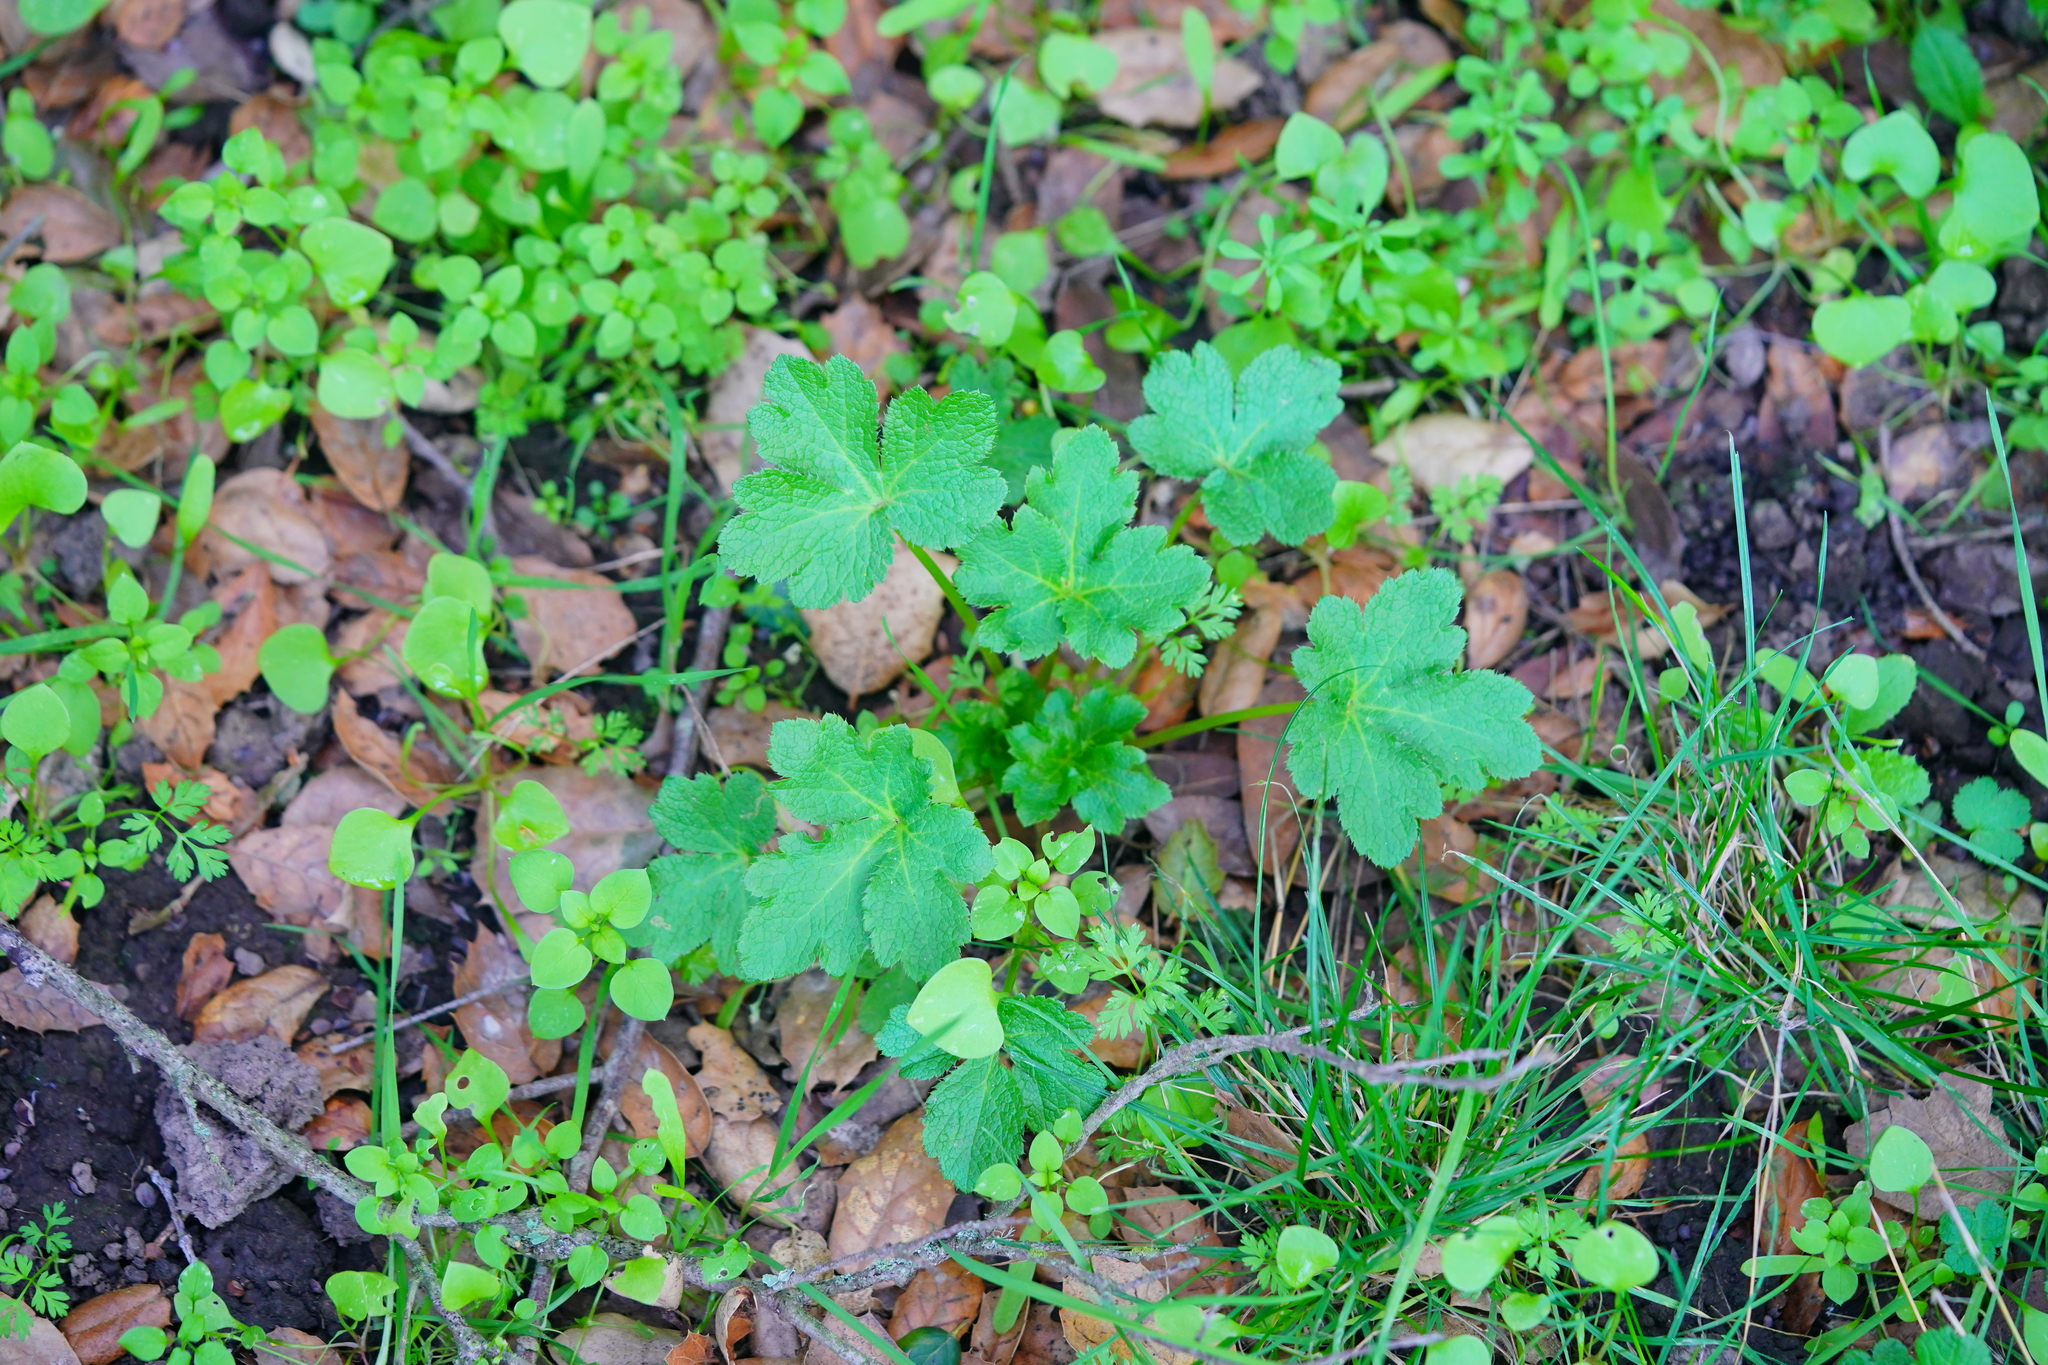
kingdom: Plantae
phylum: Tracheophyta
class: Magnoliopsida
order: Apiales
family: Apiaceae
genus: Sanicula
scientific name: Sanicula crassicaulis
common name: Western snakeroot
